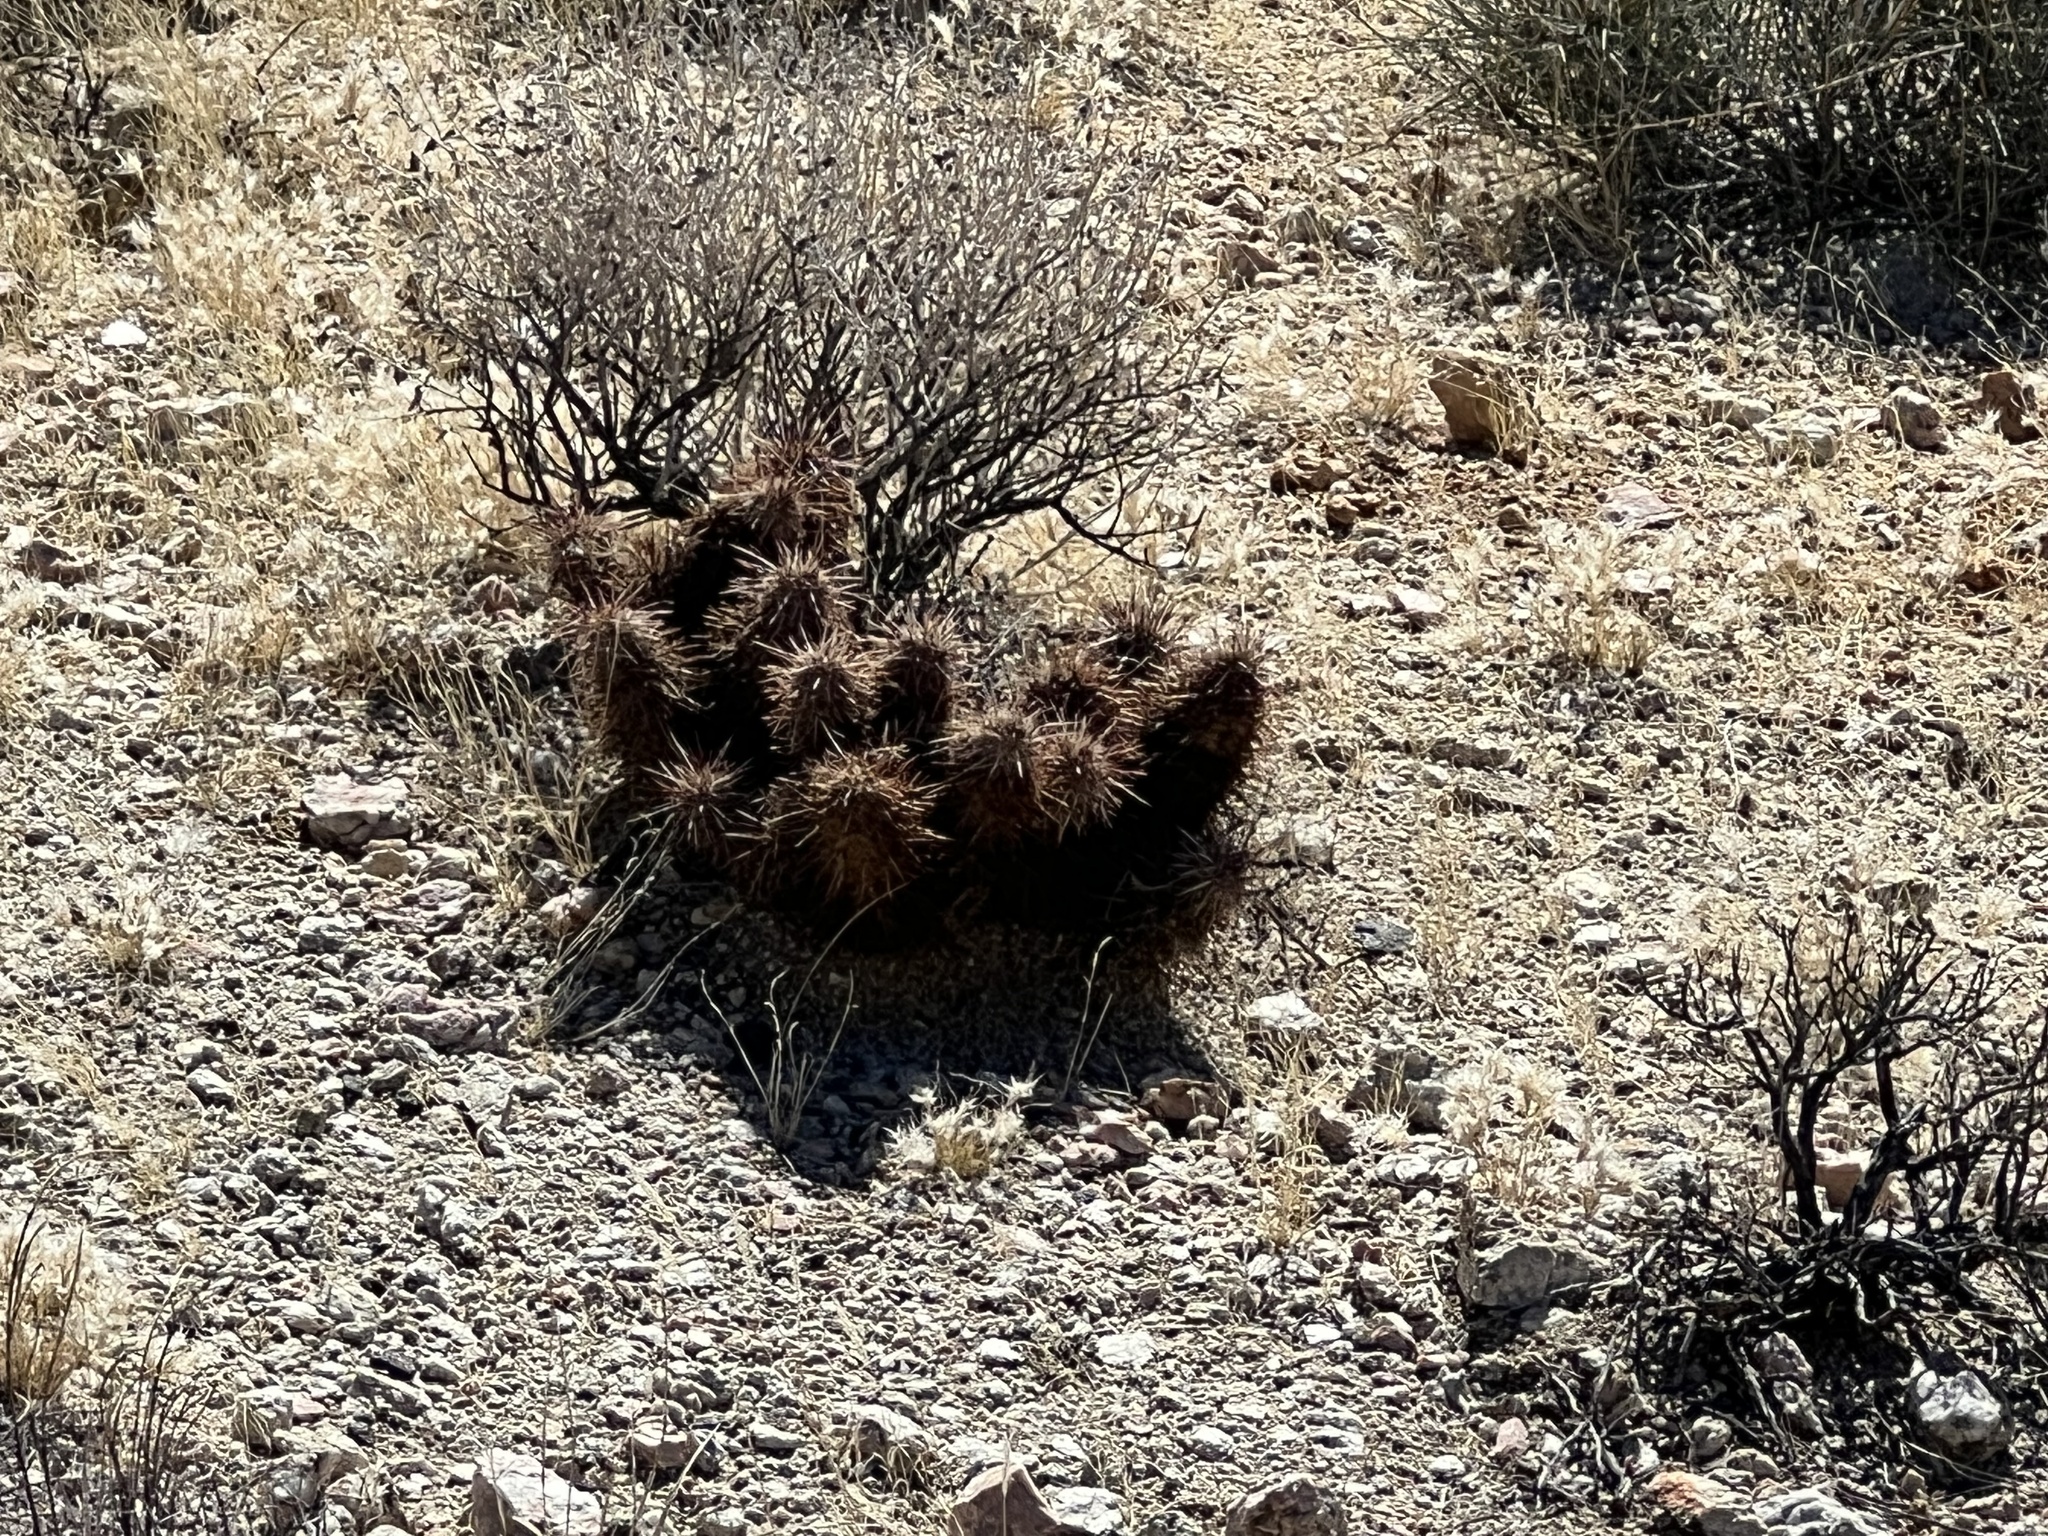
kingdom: Plantae
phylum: Tracheophyta
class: Magnoliopsida
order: Caryophyllales
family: Cactaceae
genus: Echinocereus
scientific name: Echinocereus engelmannii
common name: Engelmann's hedgehog cactus
